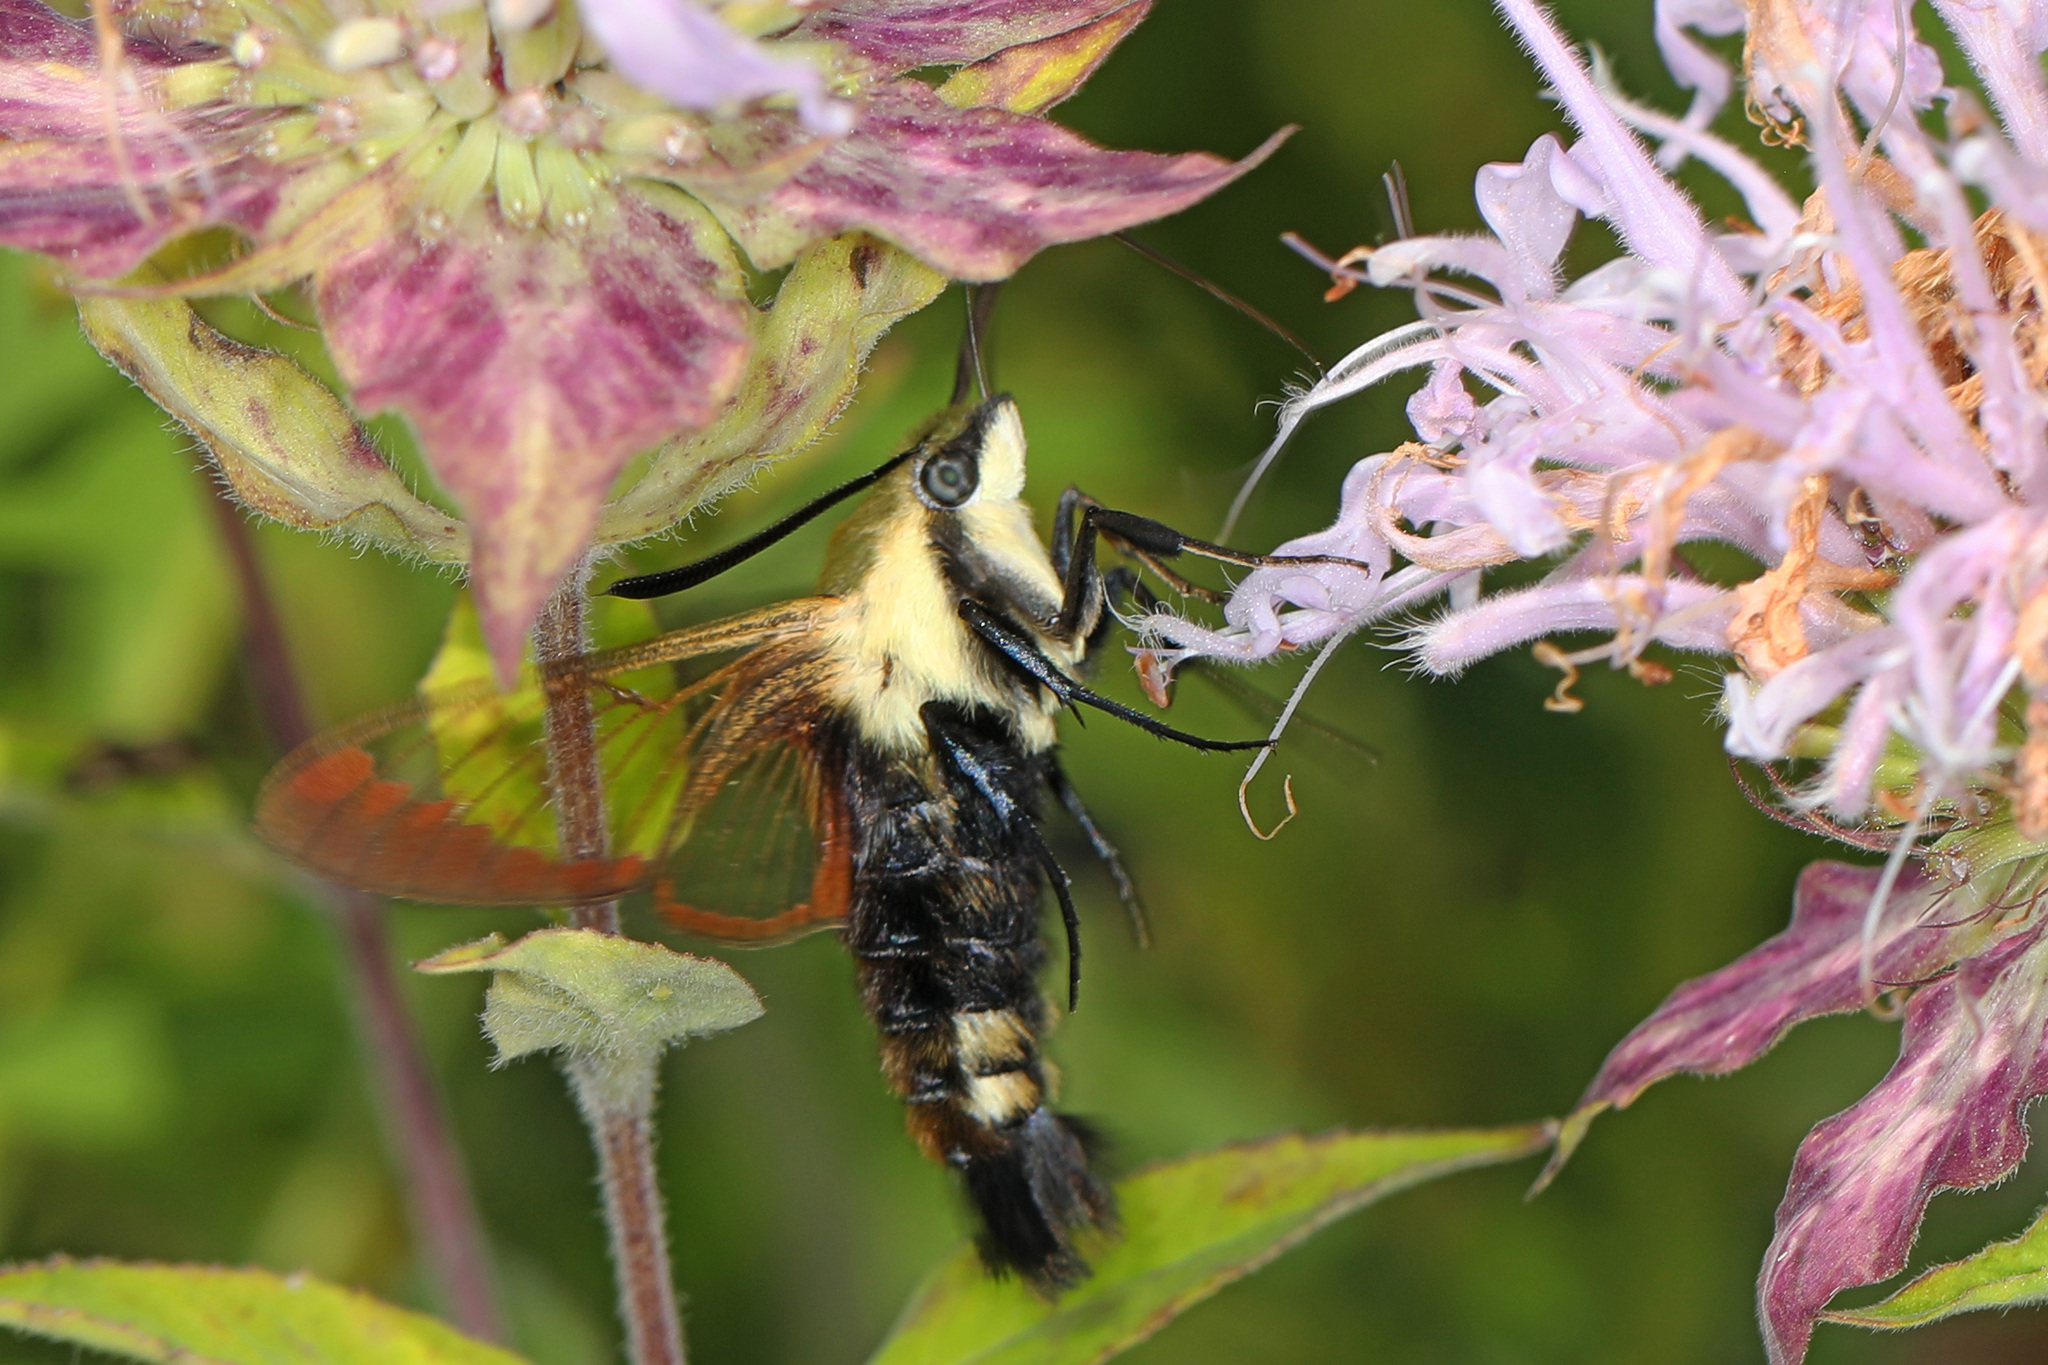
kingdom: Animalia
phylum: Arthropoda
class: Insecta
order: Lepidoptera
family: Sphingidae
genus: Hemaris
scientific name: Hemaris diffinis
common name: Bumblebee moth
